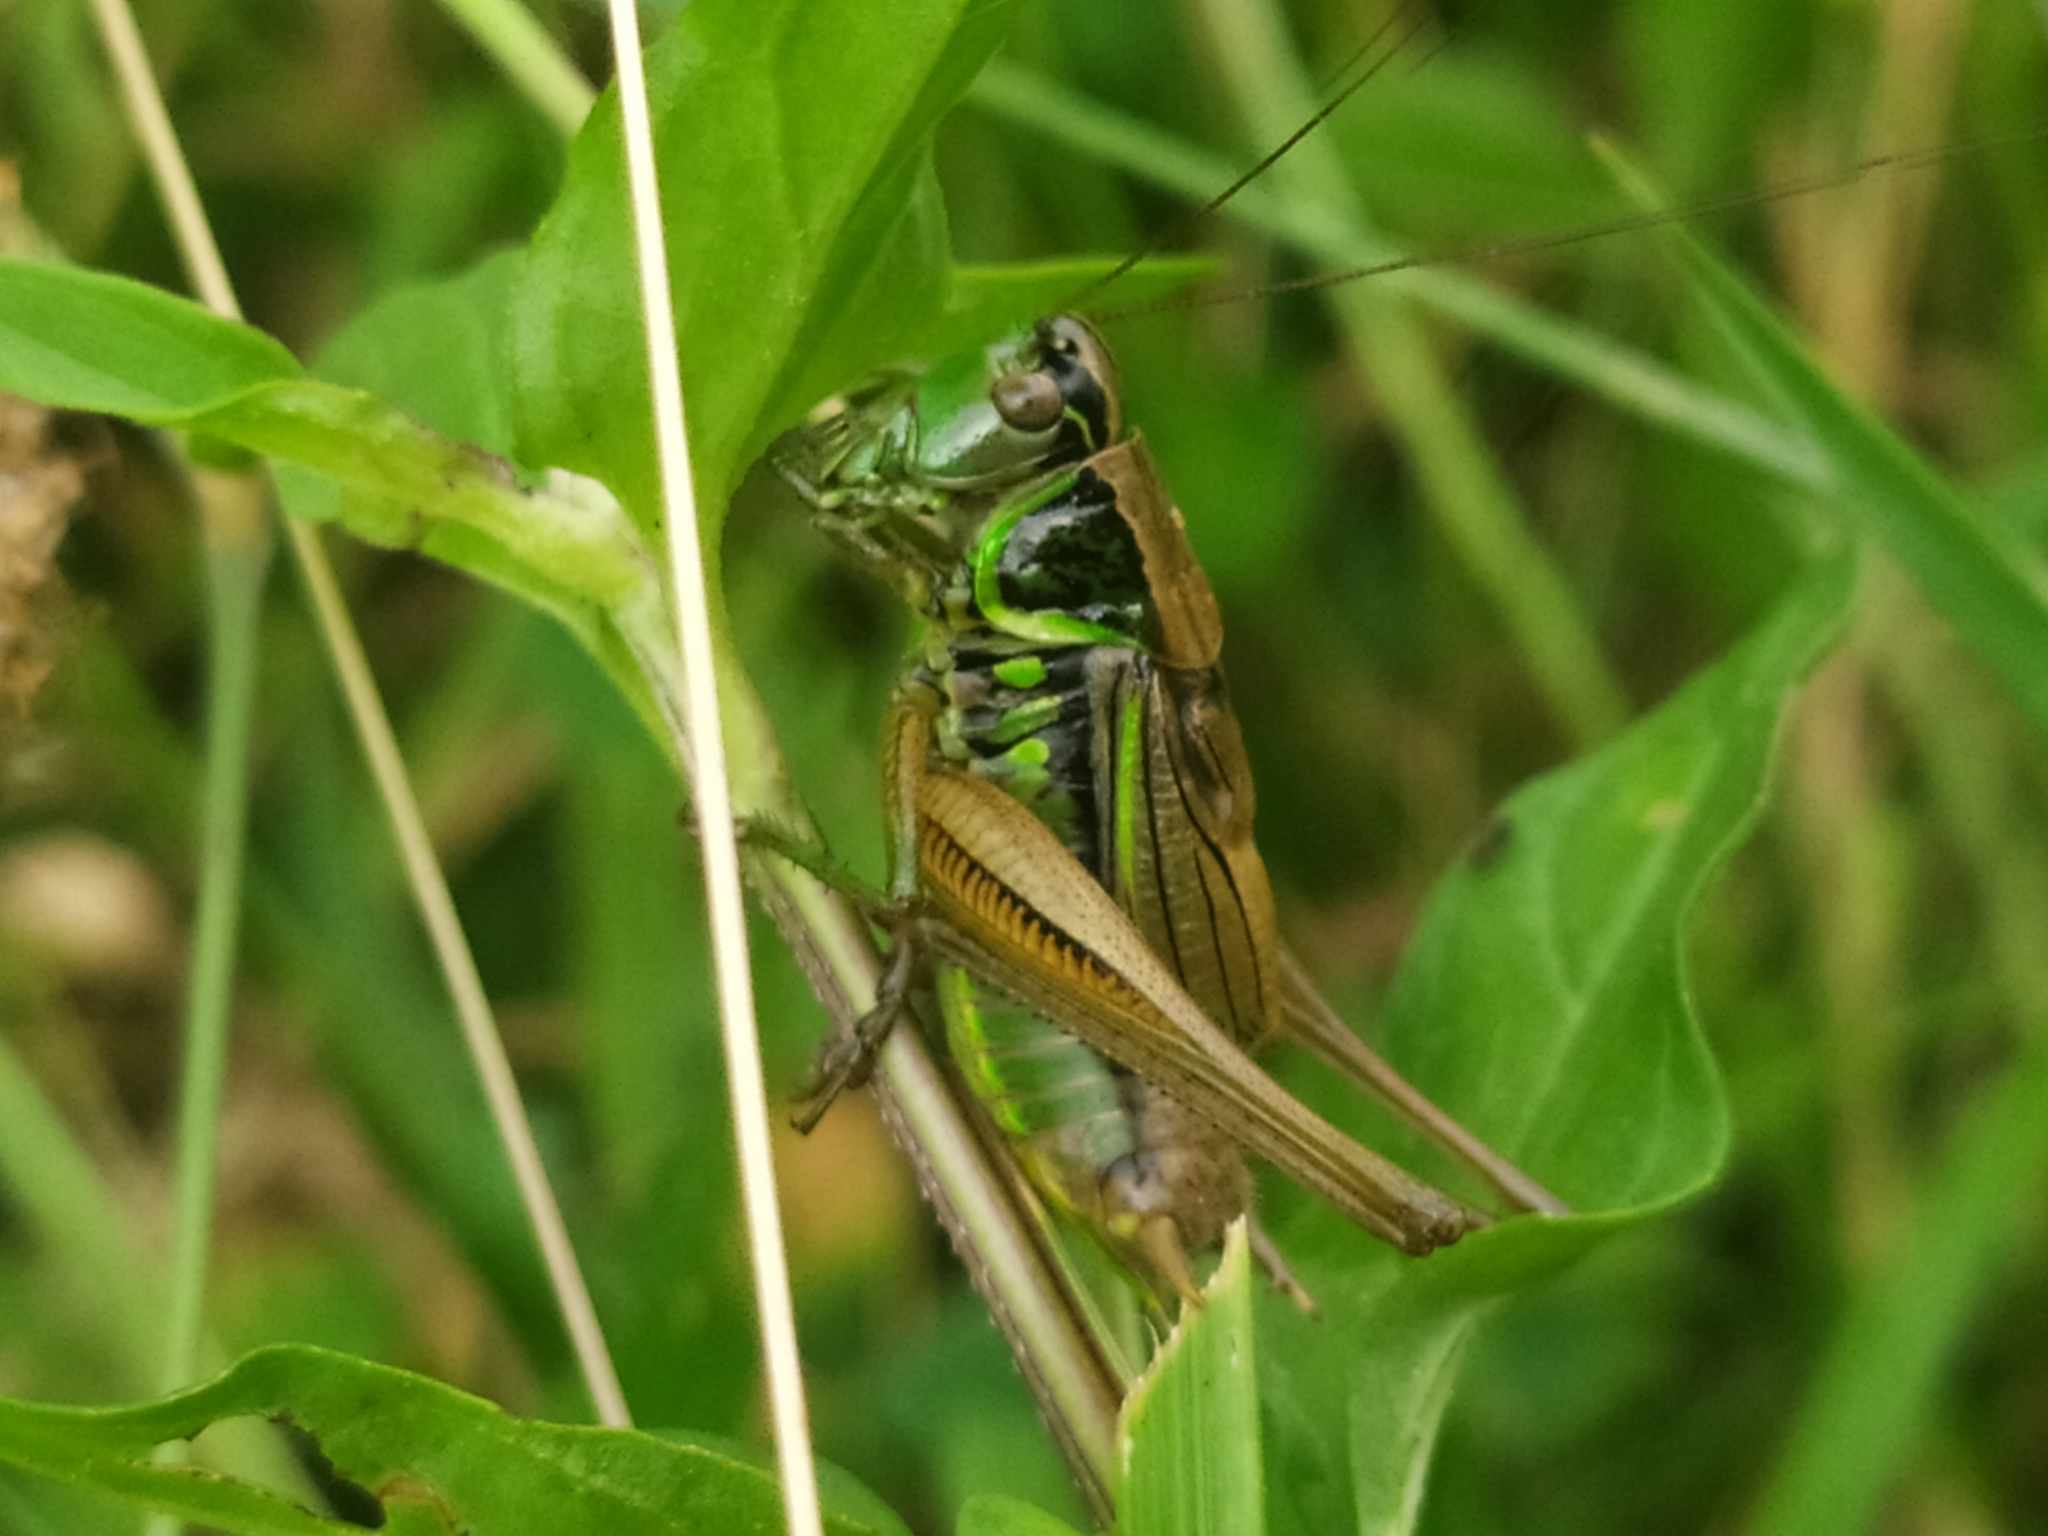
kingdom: Animalia
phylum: Arthropoda
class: Insecta
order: Orthoptera
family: Tettigoniidae
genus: Roeseliana
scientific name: Roeseliana roeselii
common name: Roesel's bush cricket
